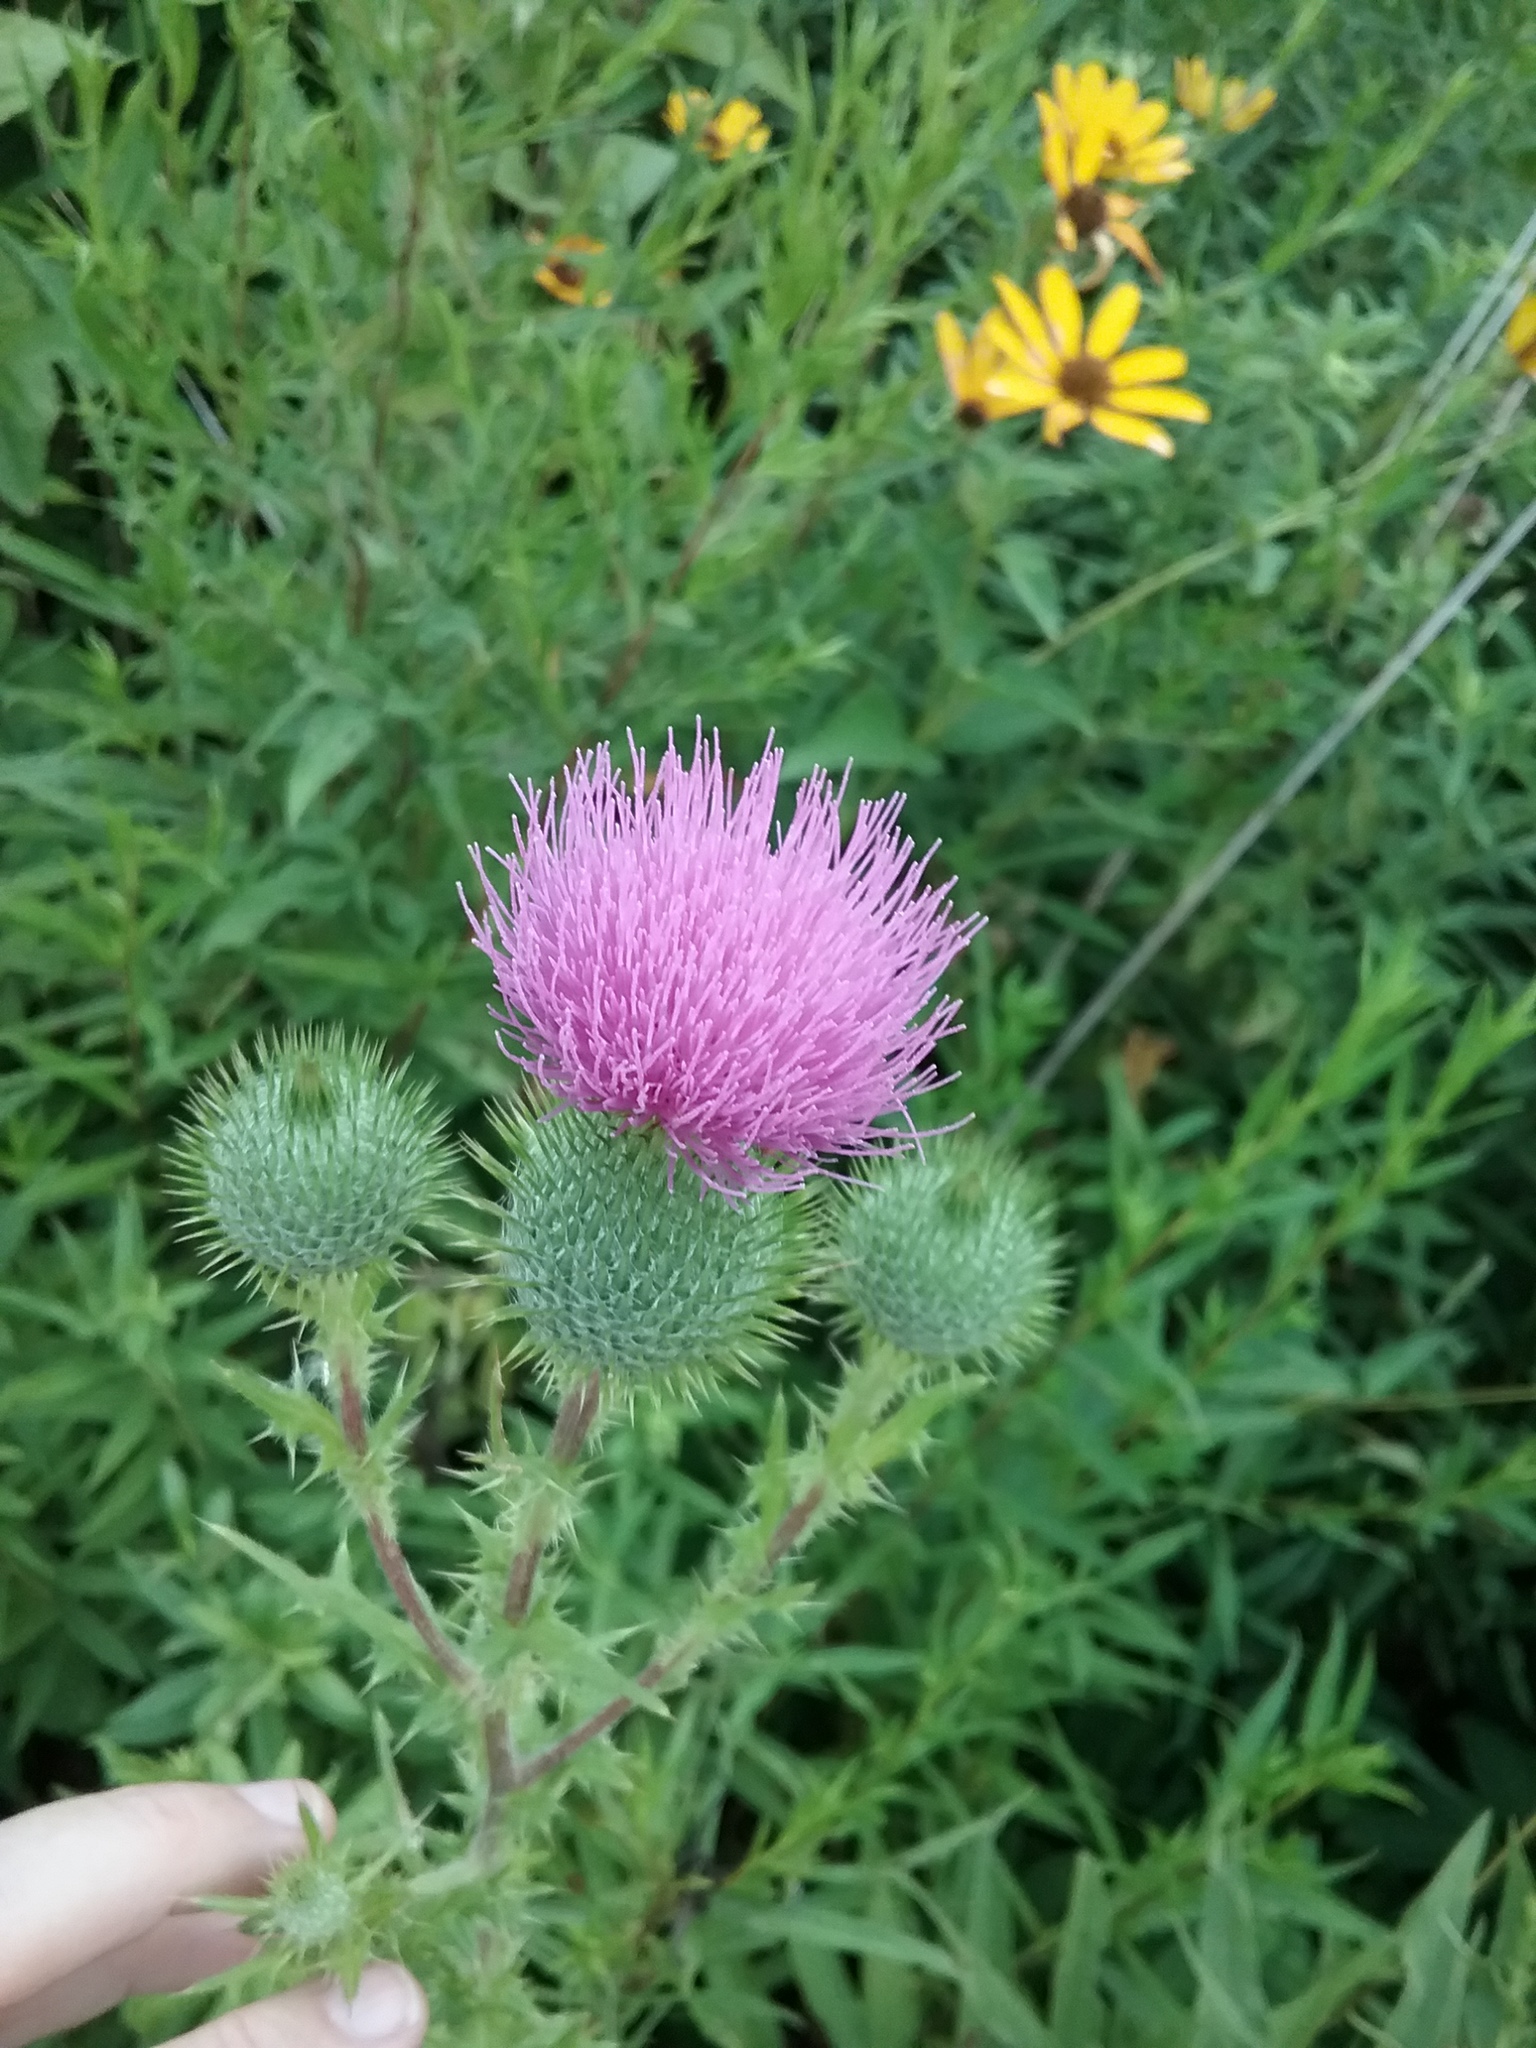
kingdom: Plantae
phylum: Tracheophyta
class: Magnoliopsida
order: Asterales
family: Asteraceae
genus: Cirsium
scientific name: Cirsium vulgare
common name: Bull thistle
